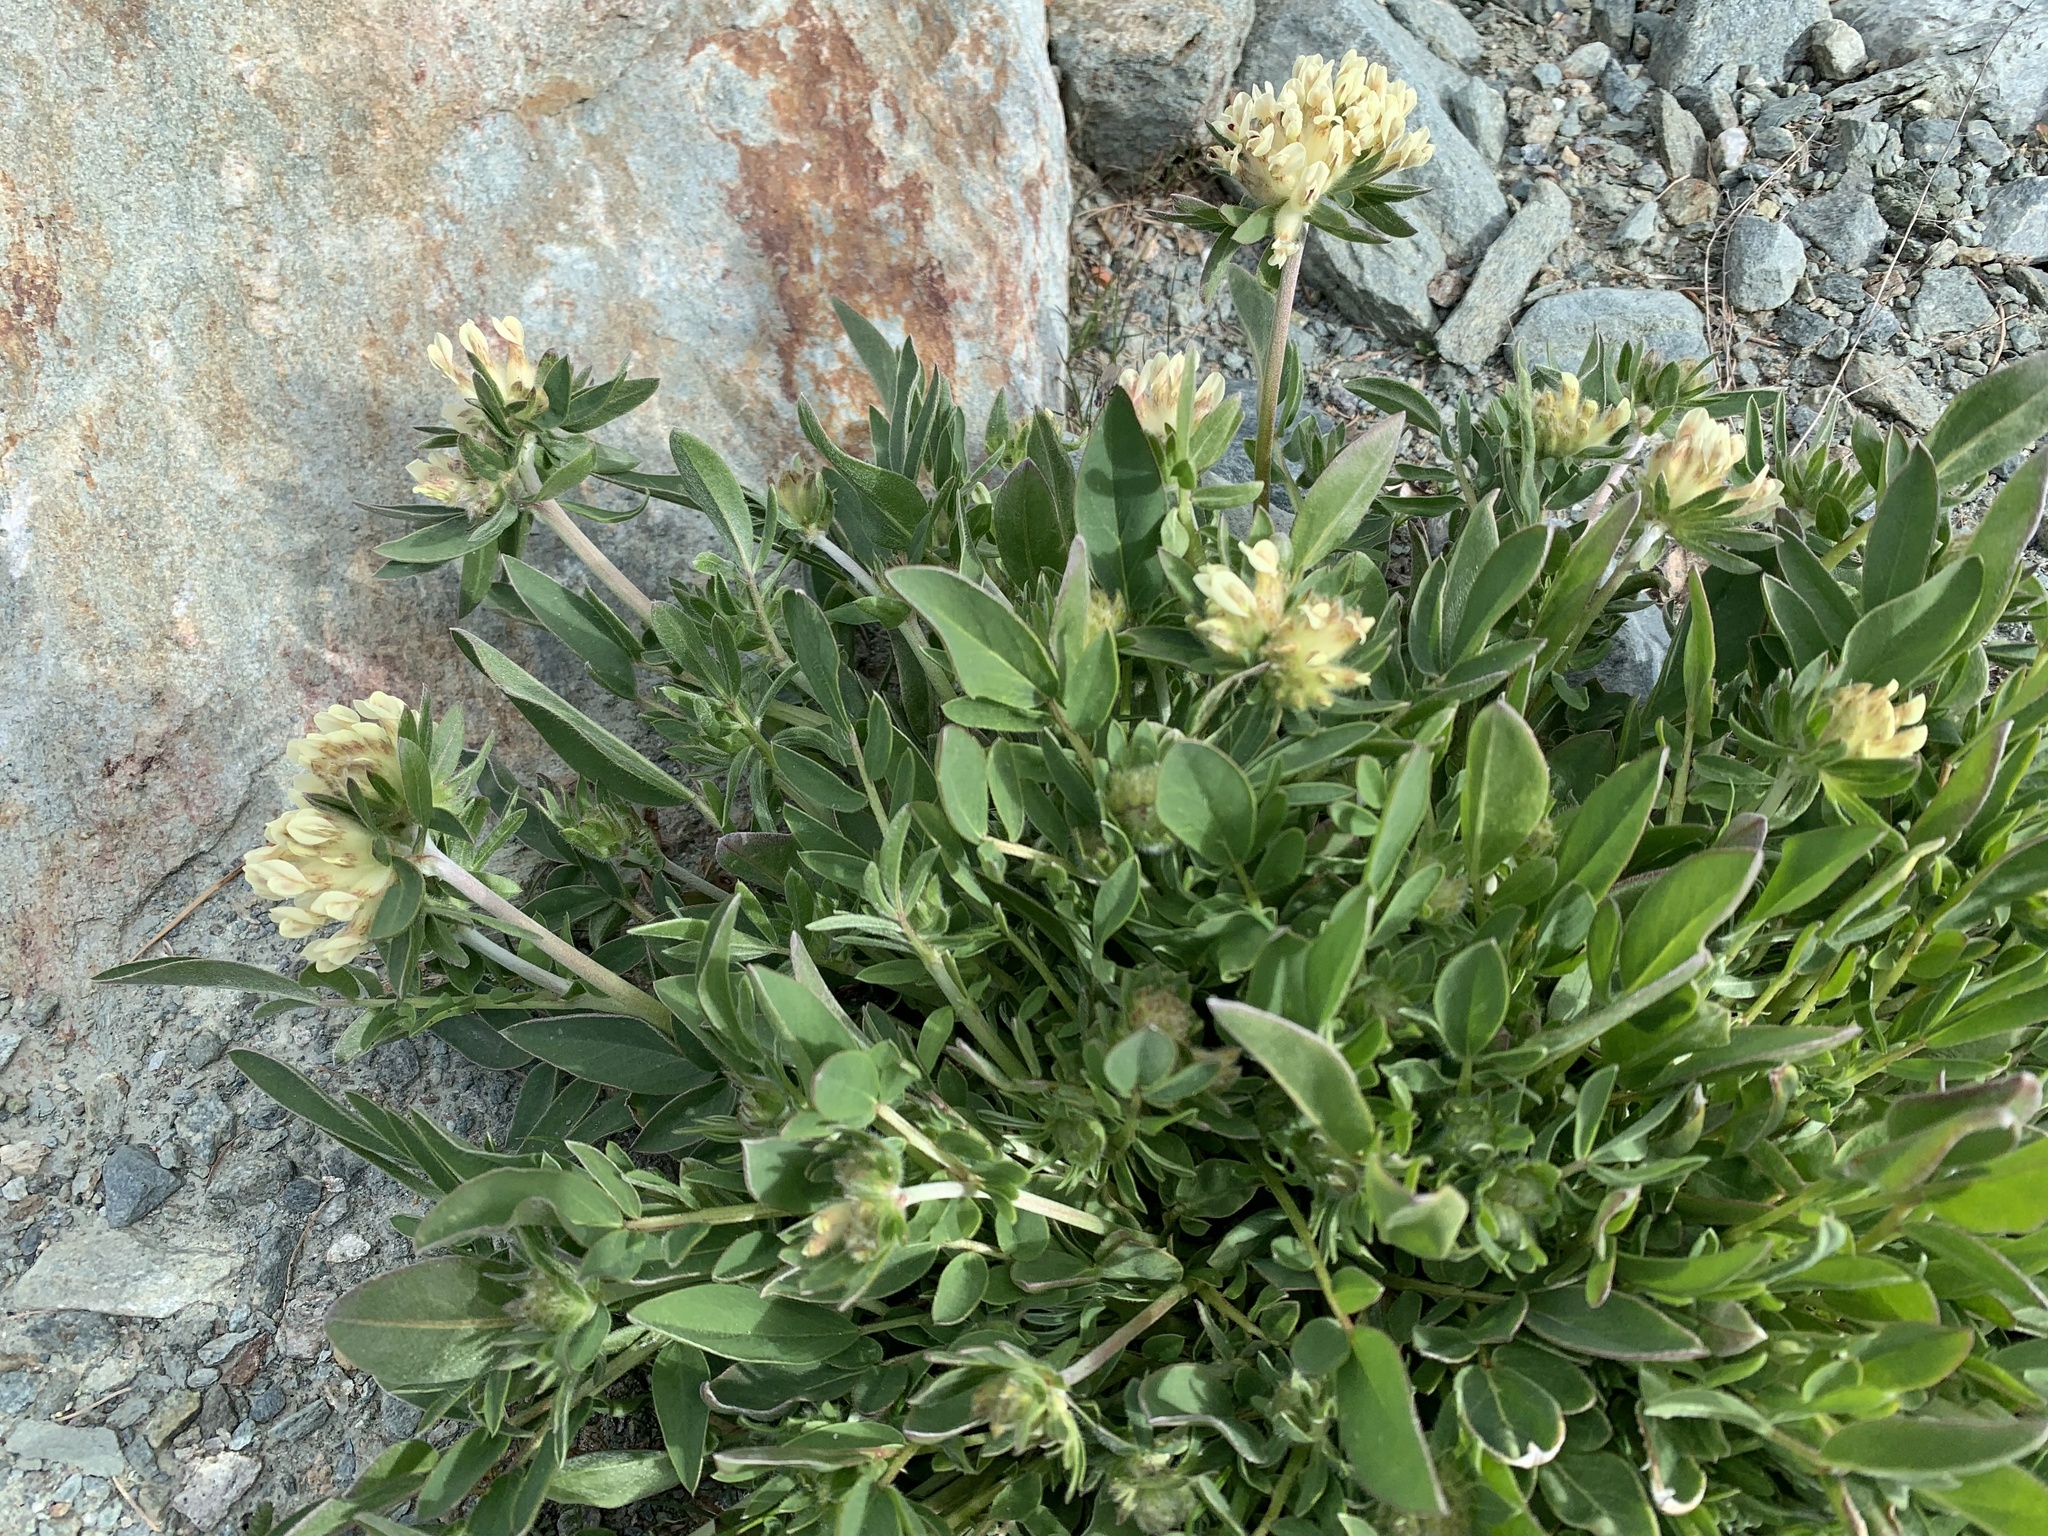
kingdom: Plantae
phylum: Tracheophyta
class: Magnoliopsida
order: Fabales
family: Fabaceae
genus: Anthyllis
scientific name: Anthyllis vulneraria
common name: Kidney vetch
